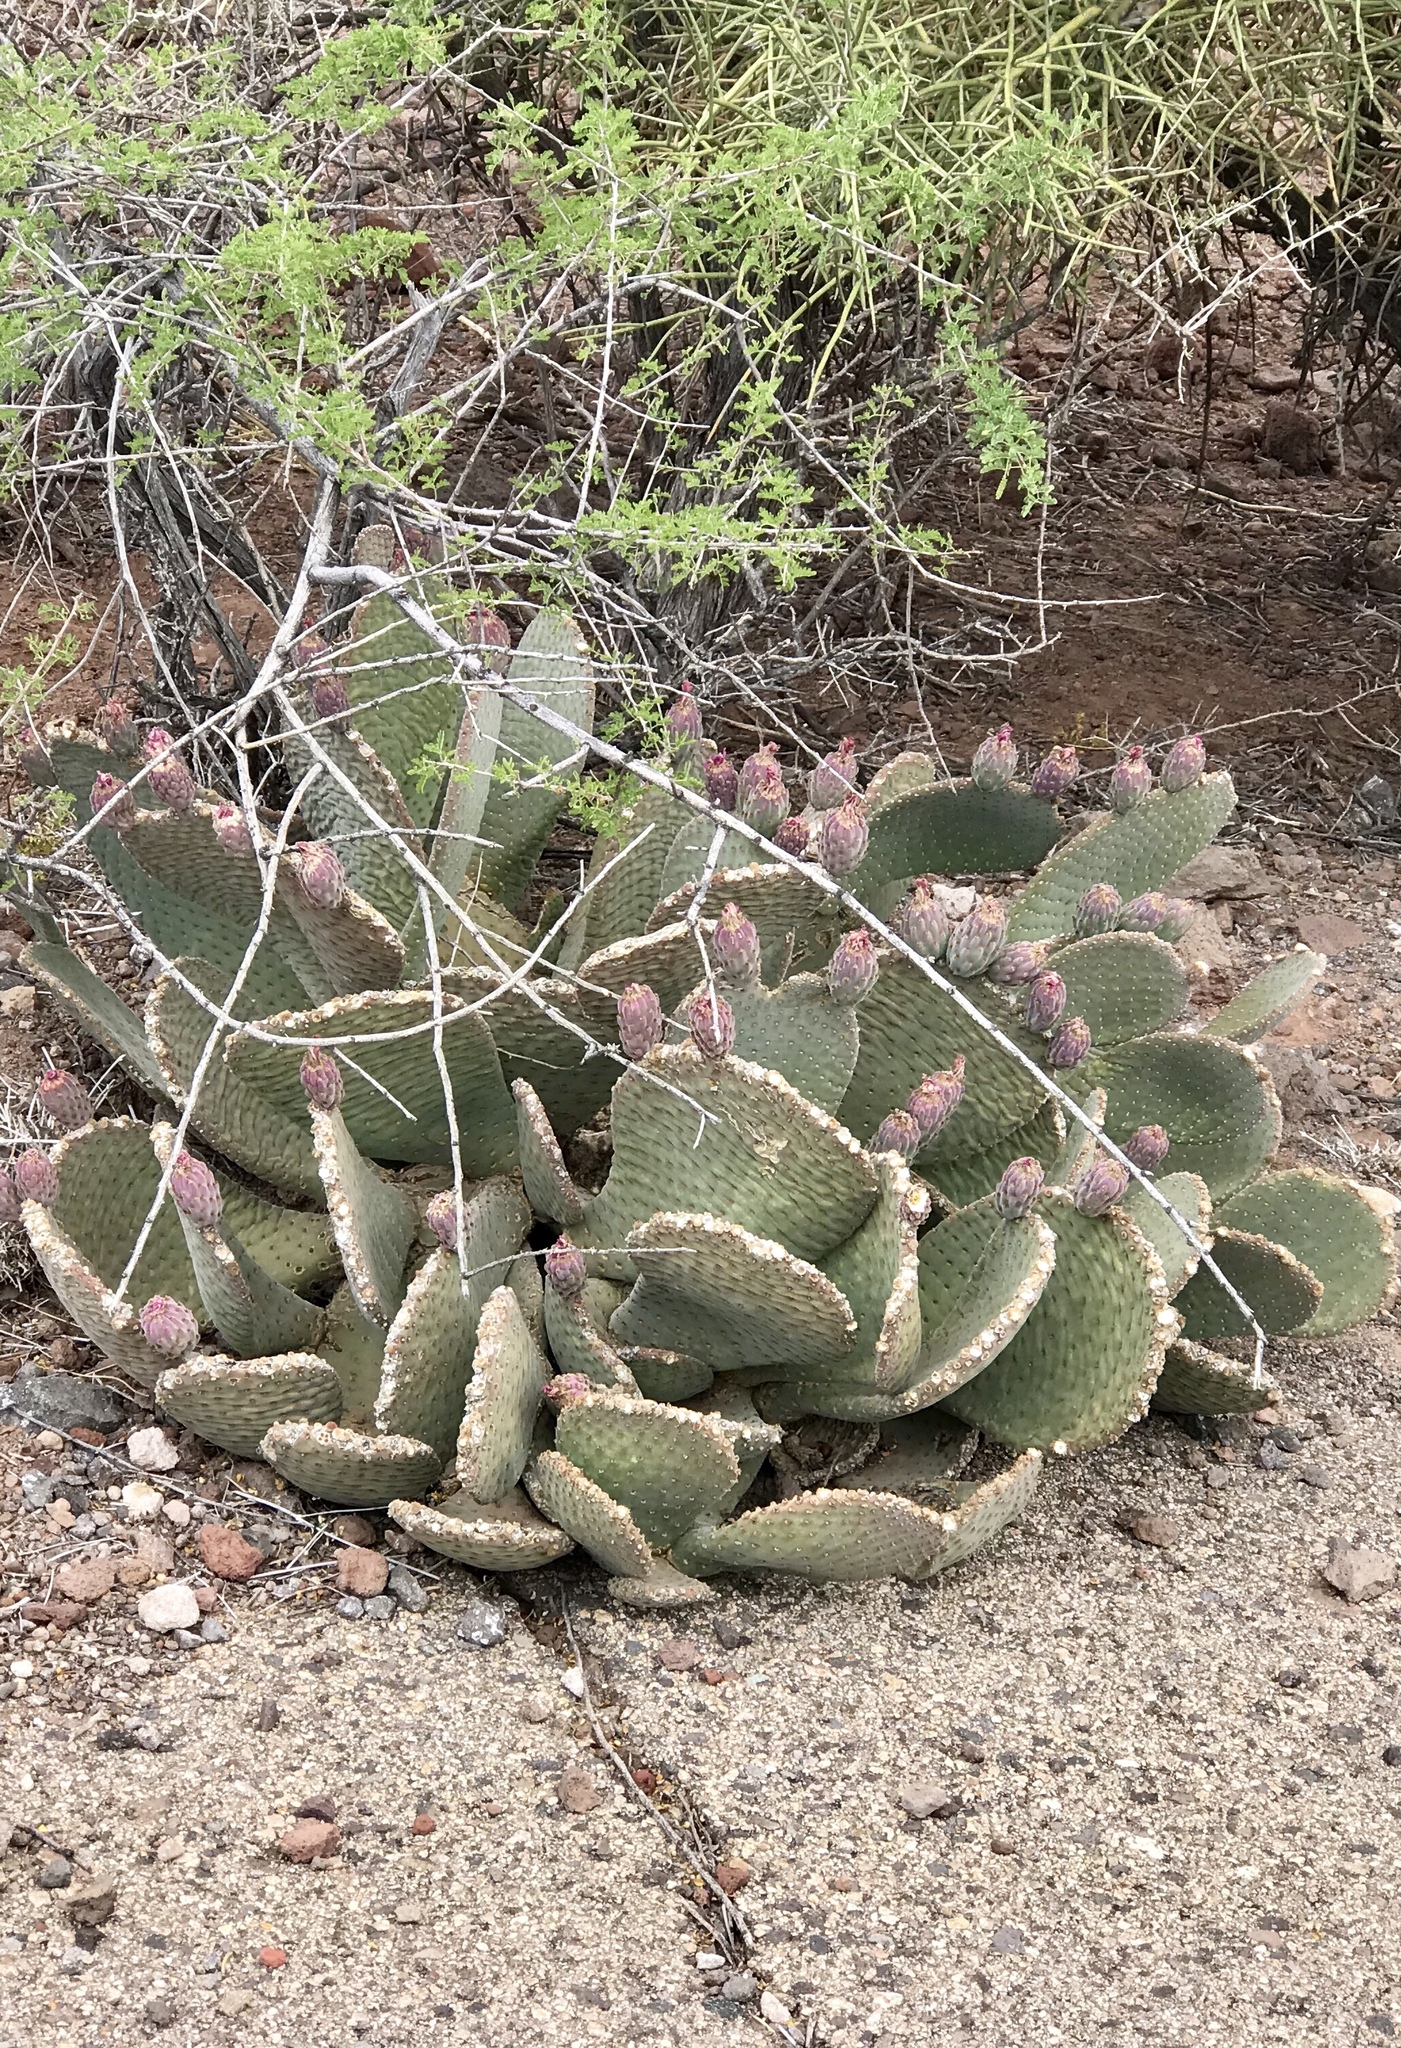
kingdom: Plantae
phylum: Tracheophyta
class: Magnoliopsida
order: Caryophyllales
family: Cactaceae
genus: Opuntia
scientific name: Opuntia basilaris
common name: Beavertail prickly-pear
